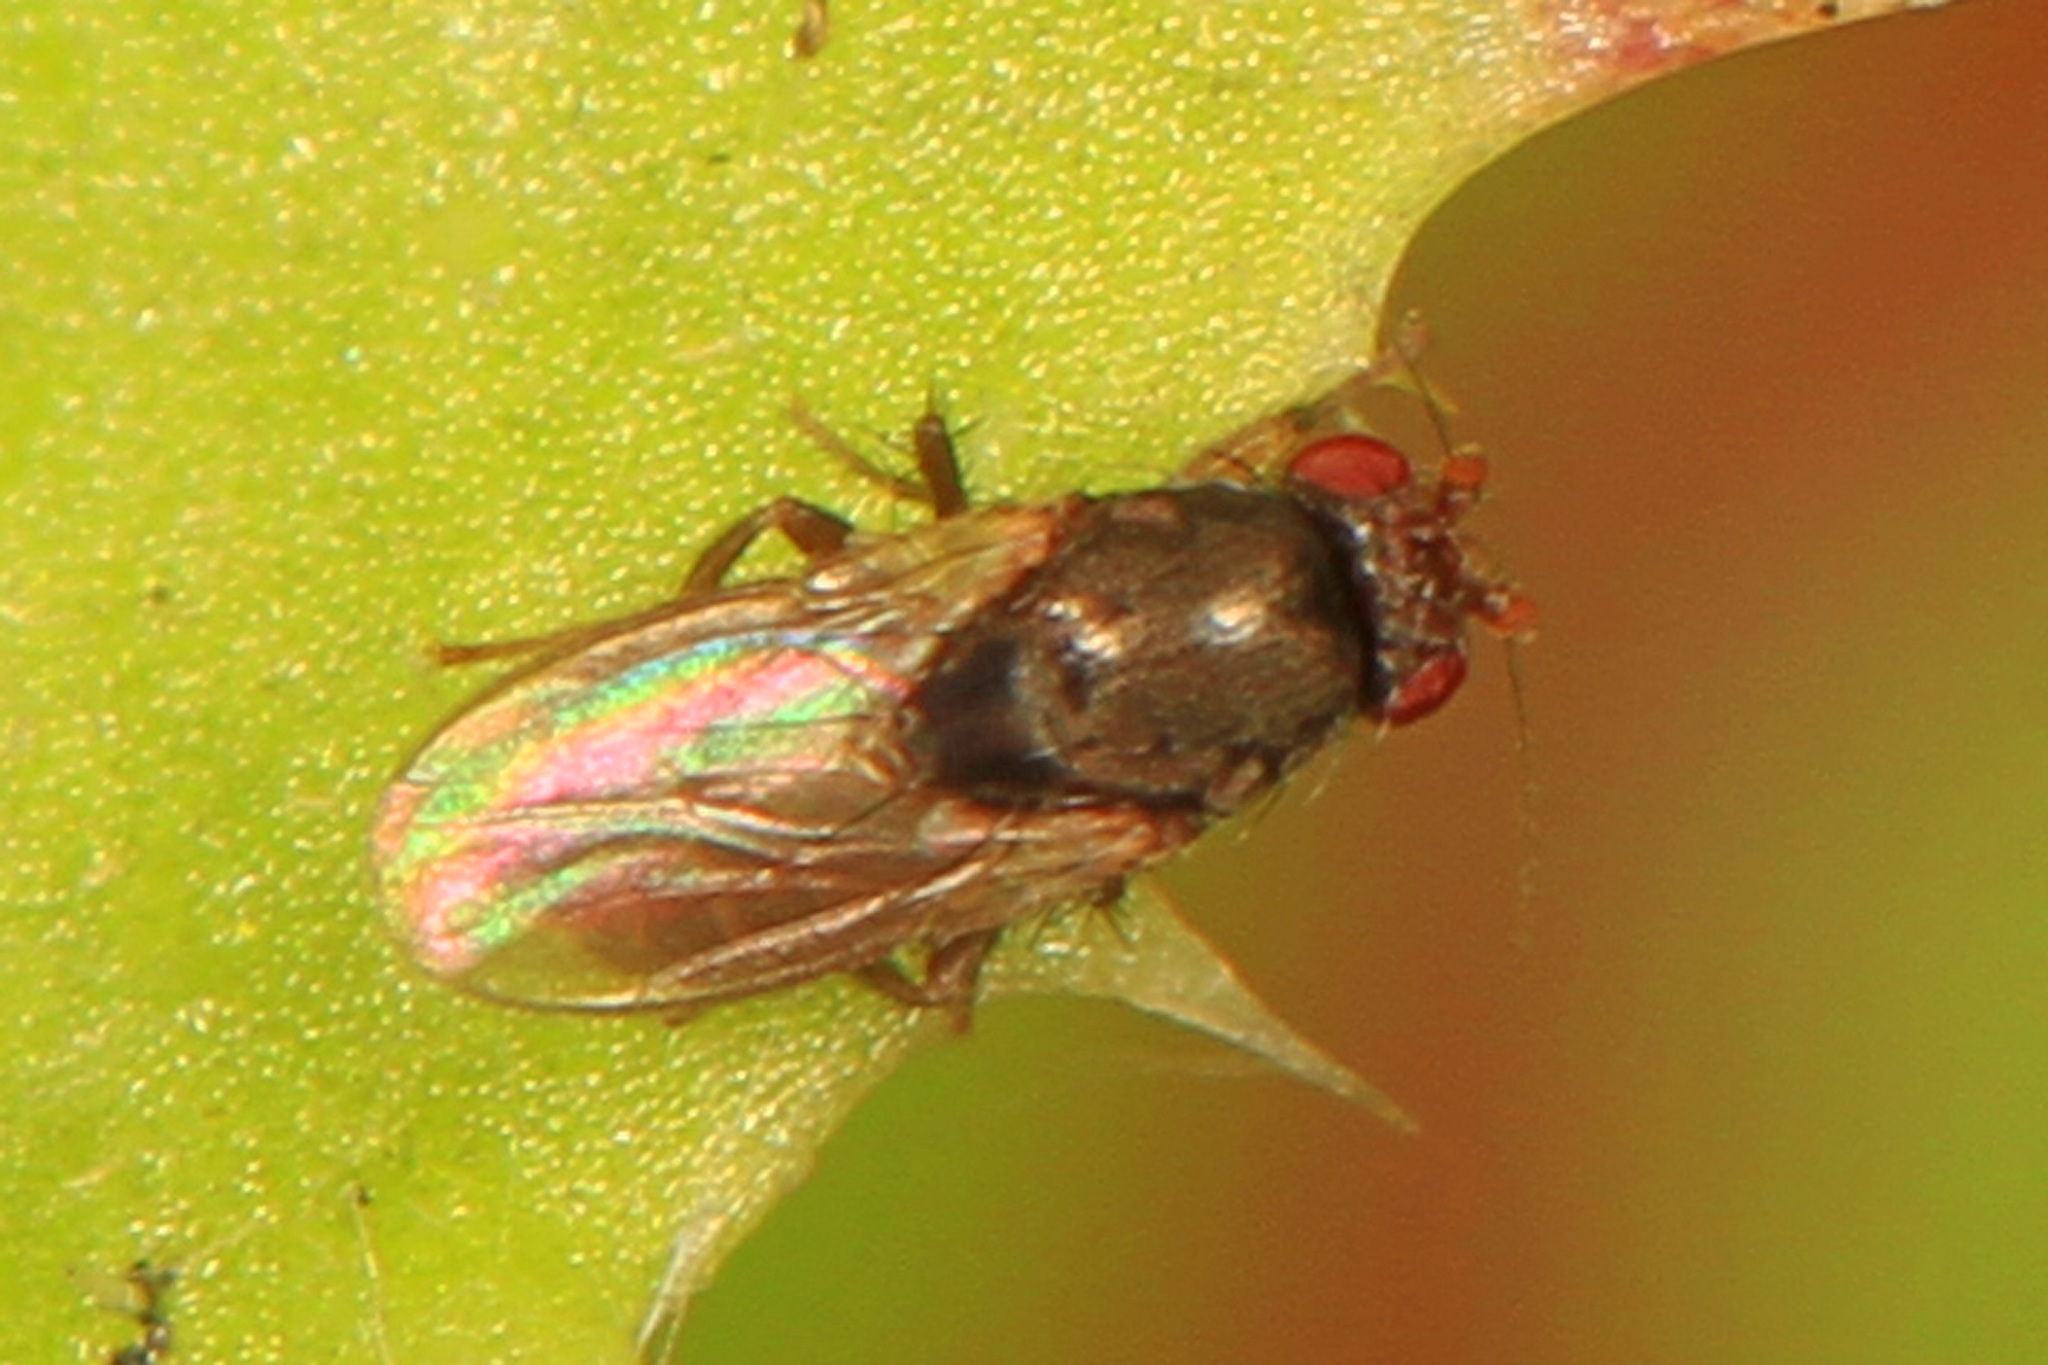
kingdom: Animalia
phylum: Arthropoda
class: Insecta
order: Diptera
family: Sphaeroceridae
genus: Leptocera
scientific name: Leptocera fulva
